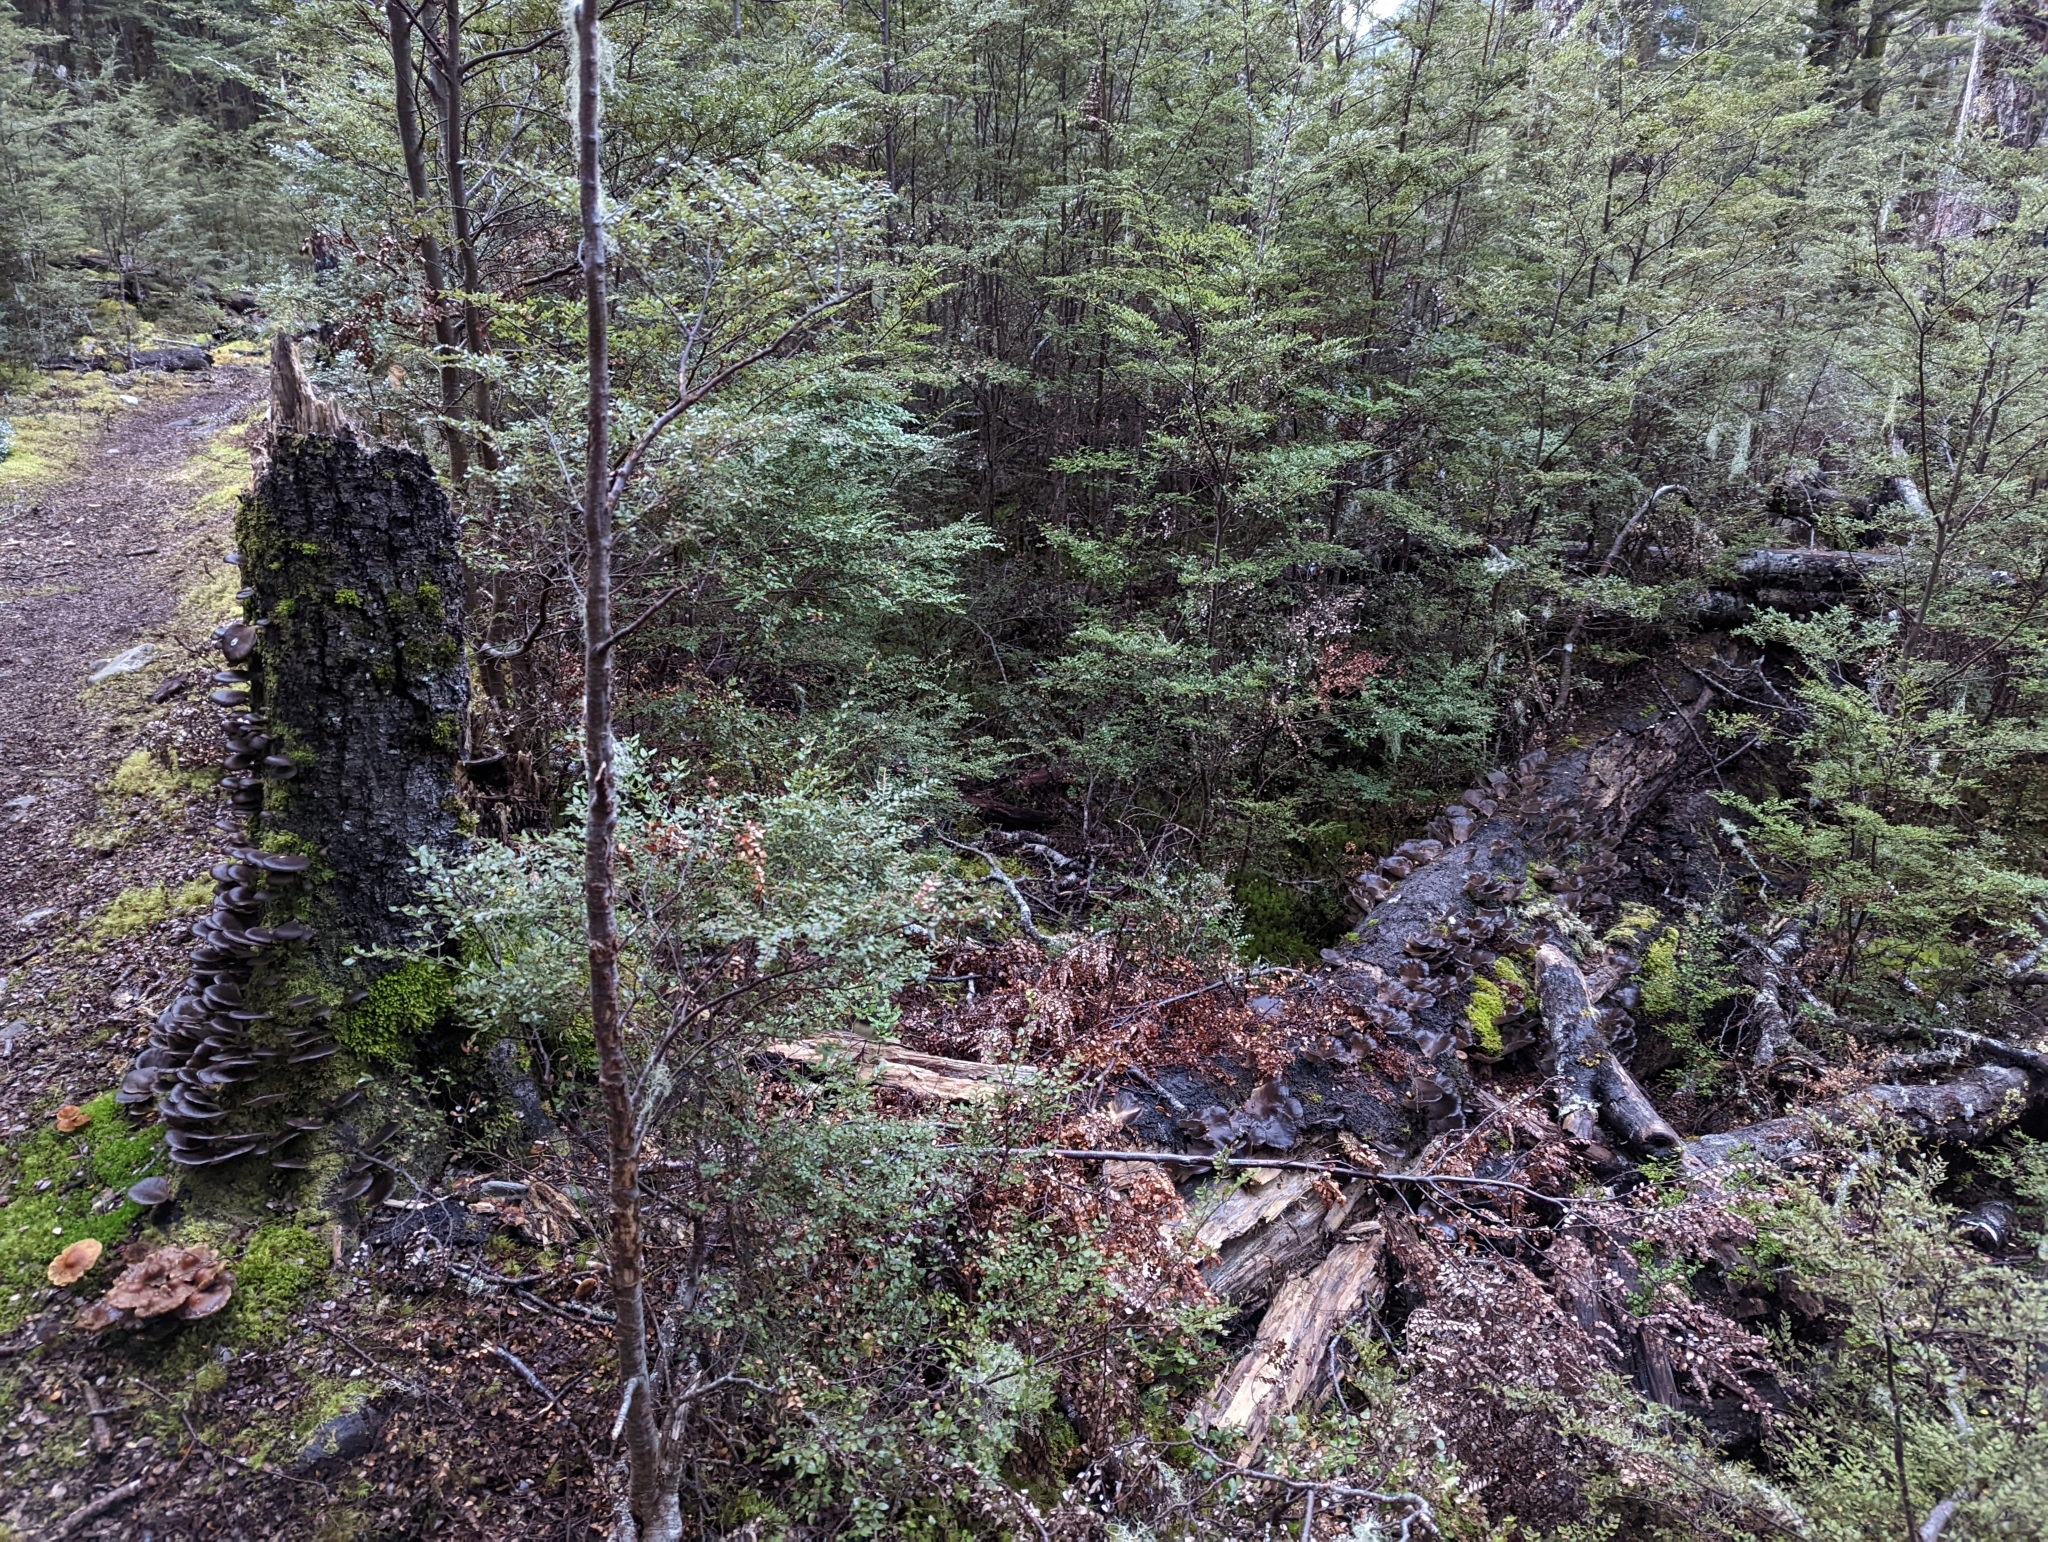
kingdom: Fungi
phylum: Basidiomycota
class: Agaricomycetes
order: Agaricales
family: Pleurotaceae
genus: Pleurotus
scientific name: Pleurotus purpureo-olivaceus
